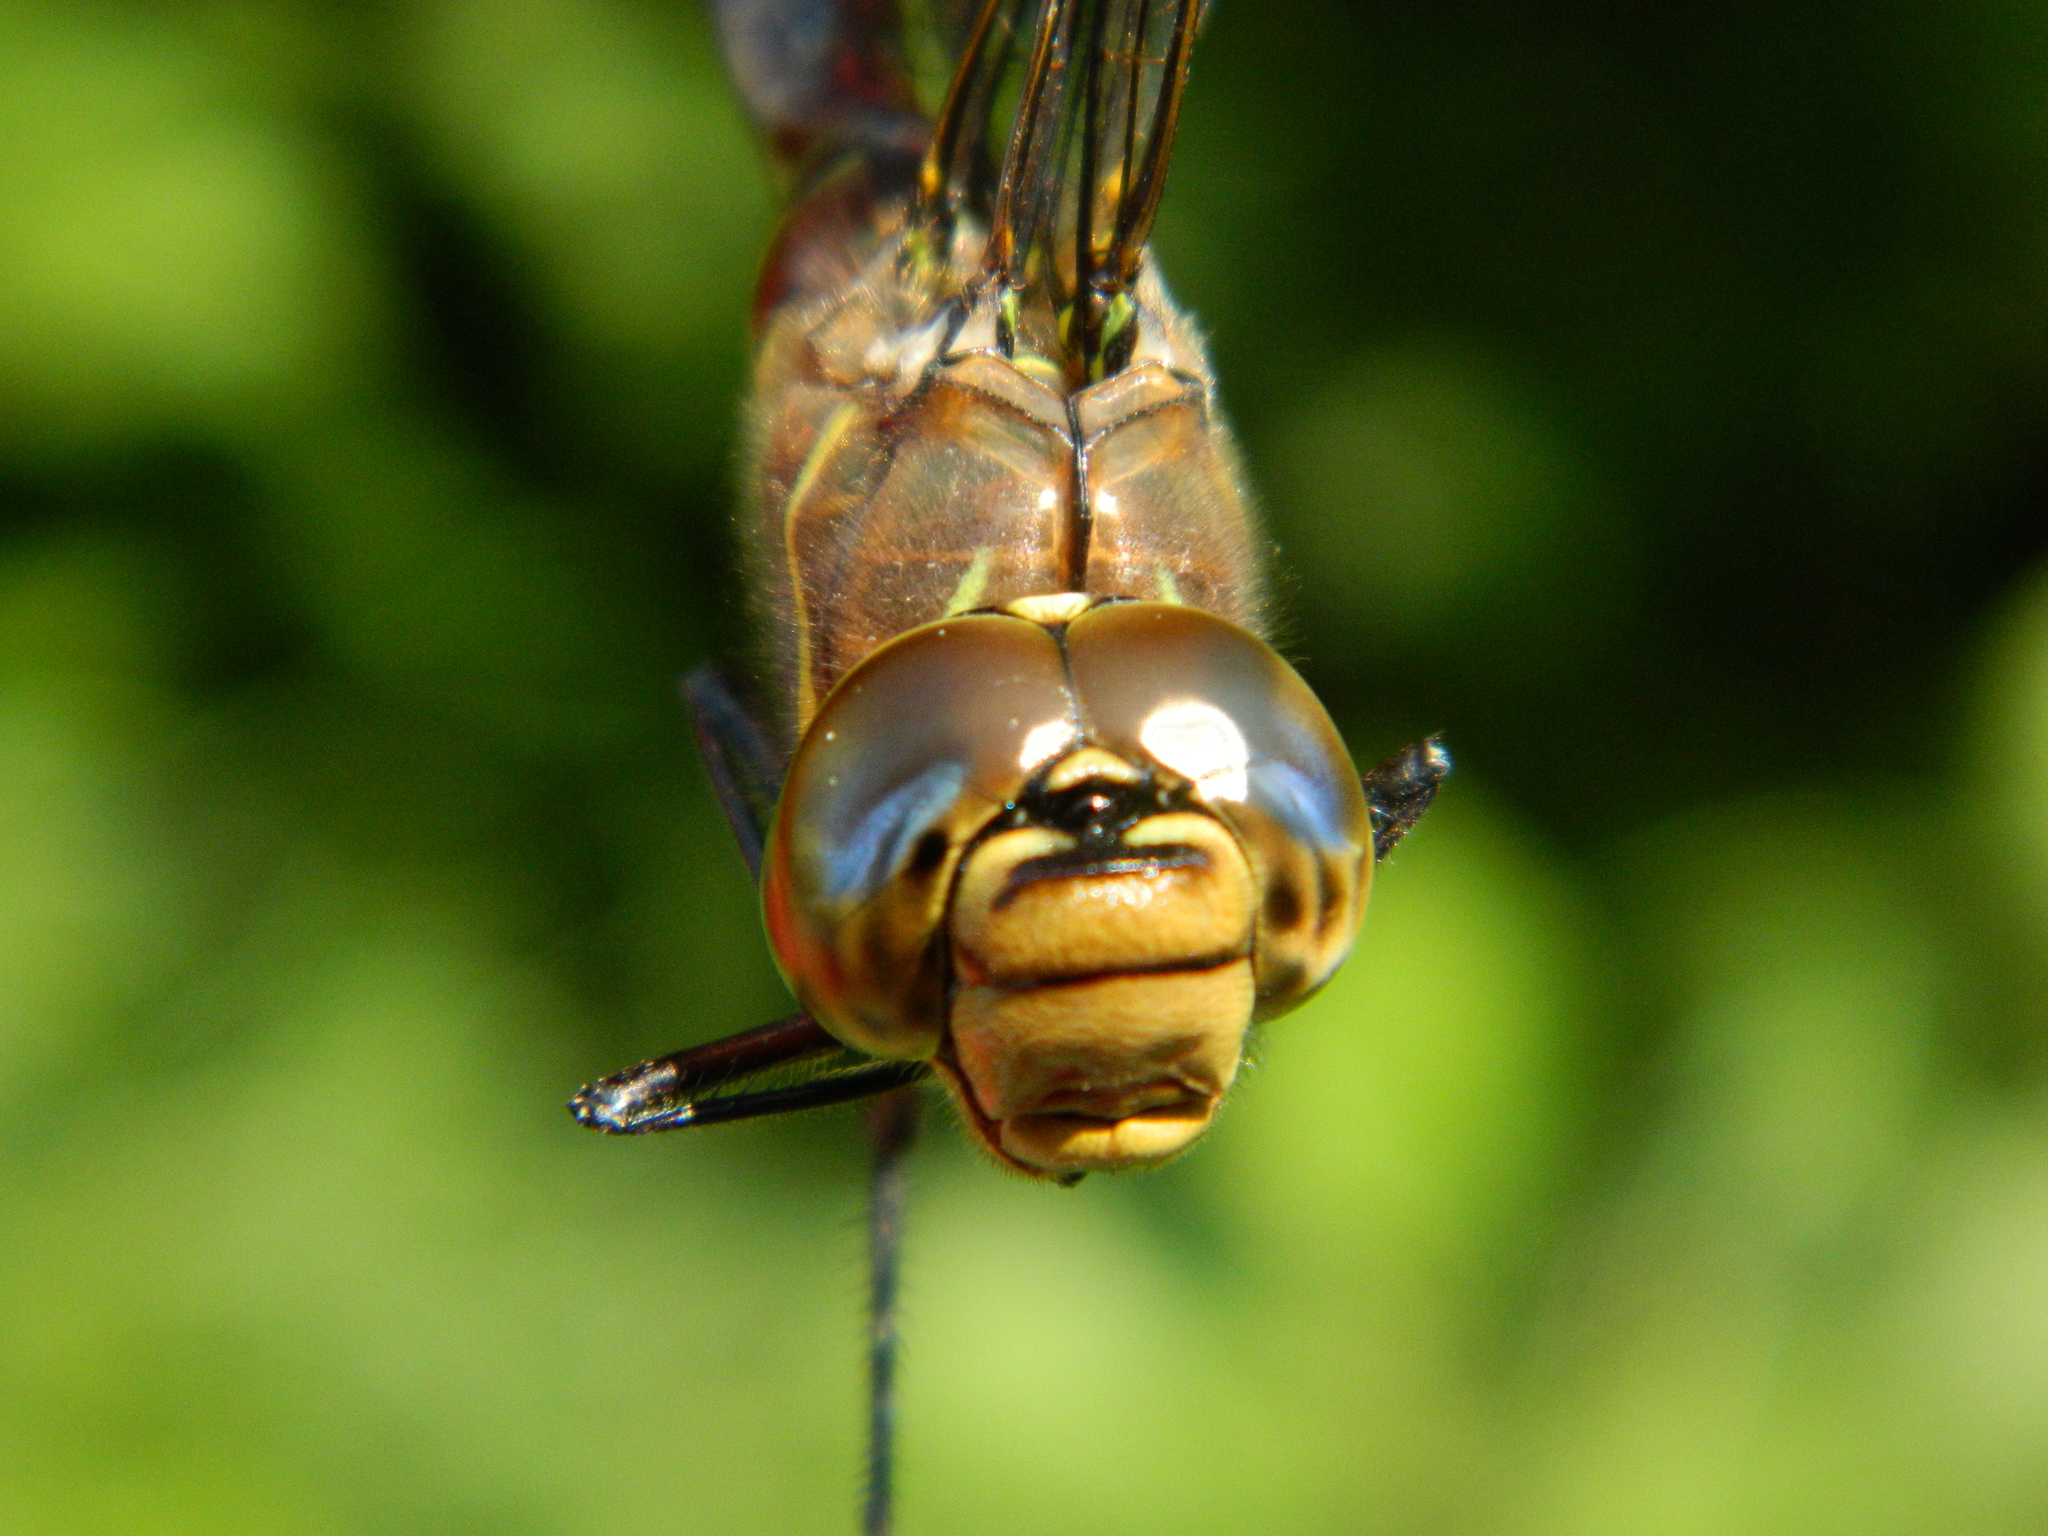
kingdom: Animalia
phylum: Arthropoda
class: Insecta
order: Odonata
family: Aeshnidae
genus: Aeshna
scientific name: Aeshna interrupta
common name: Variable darner
